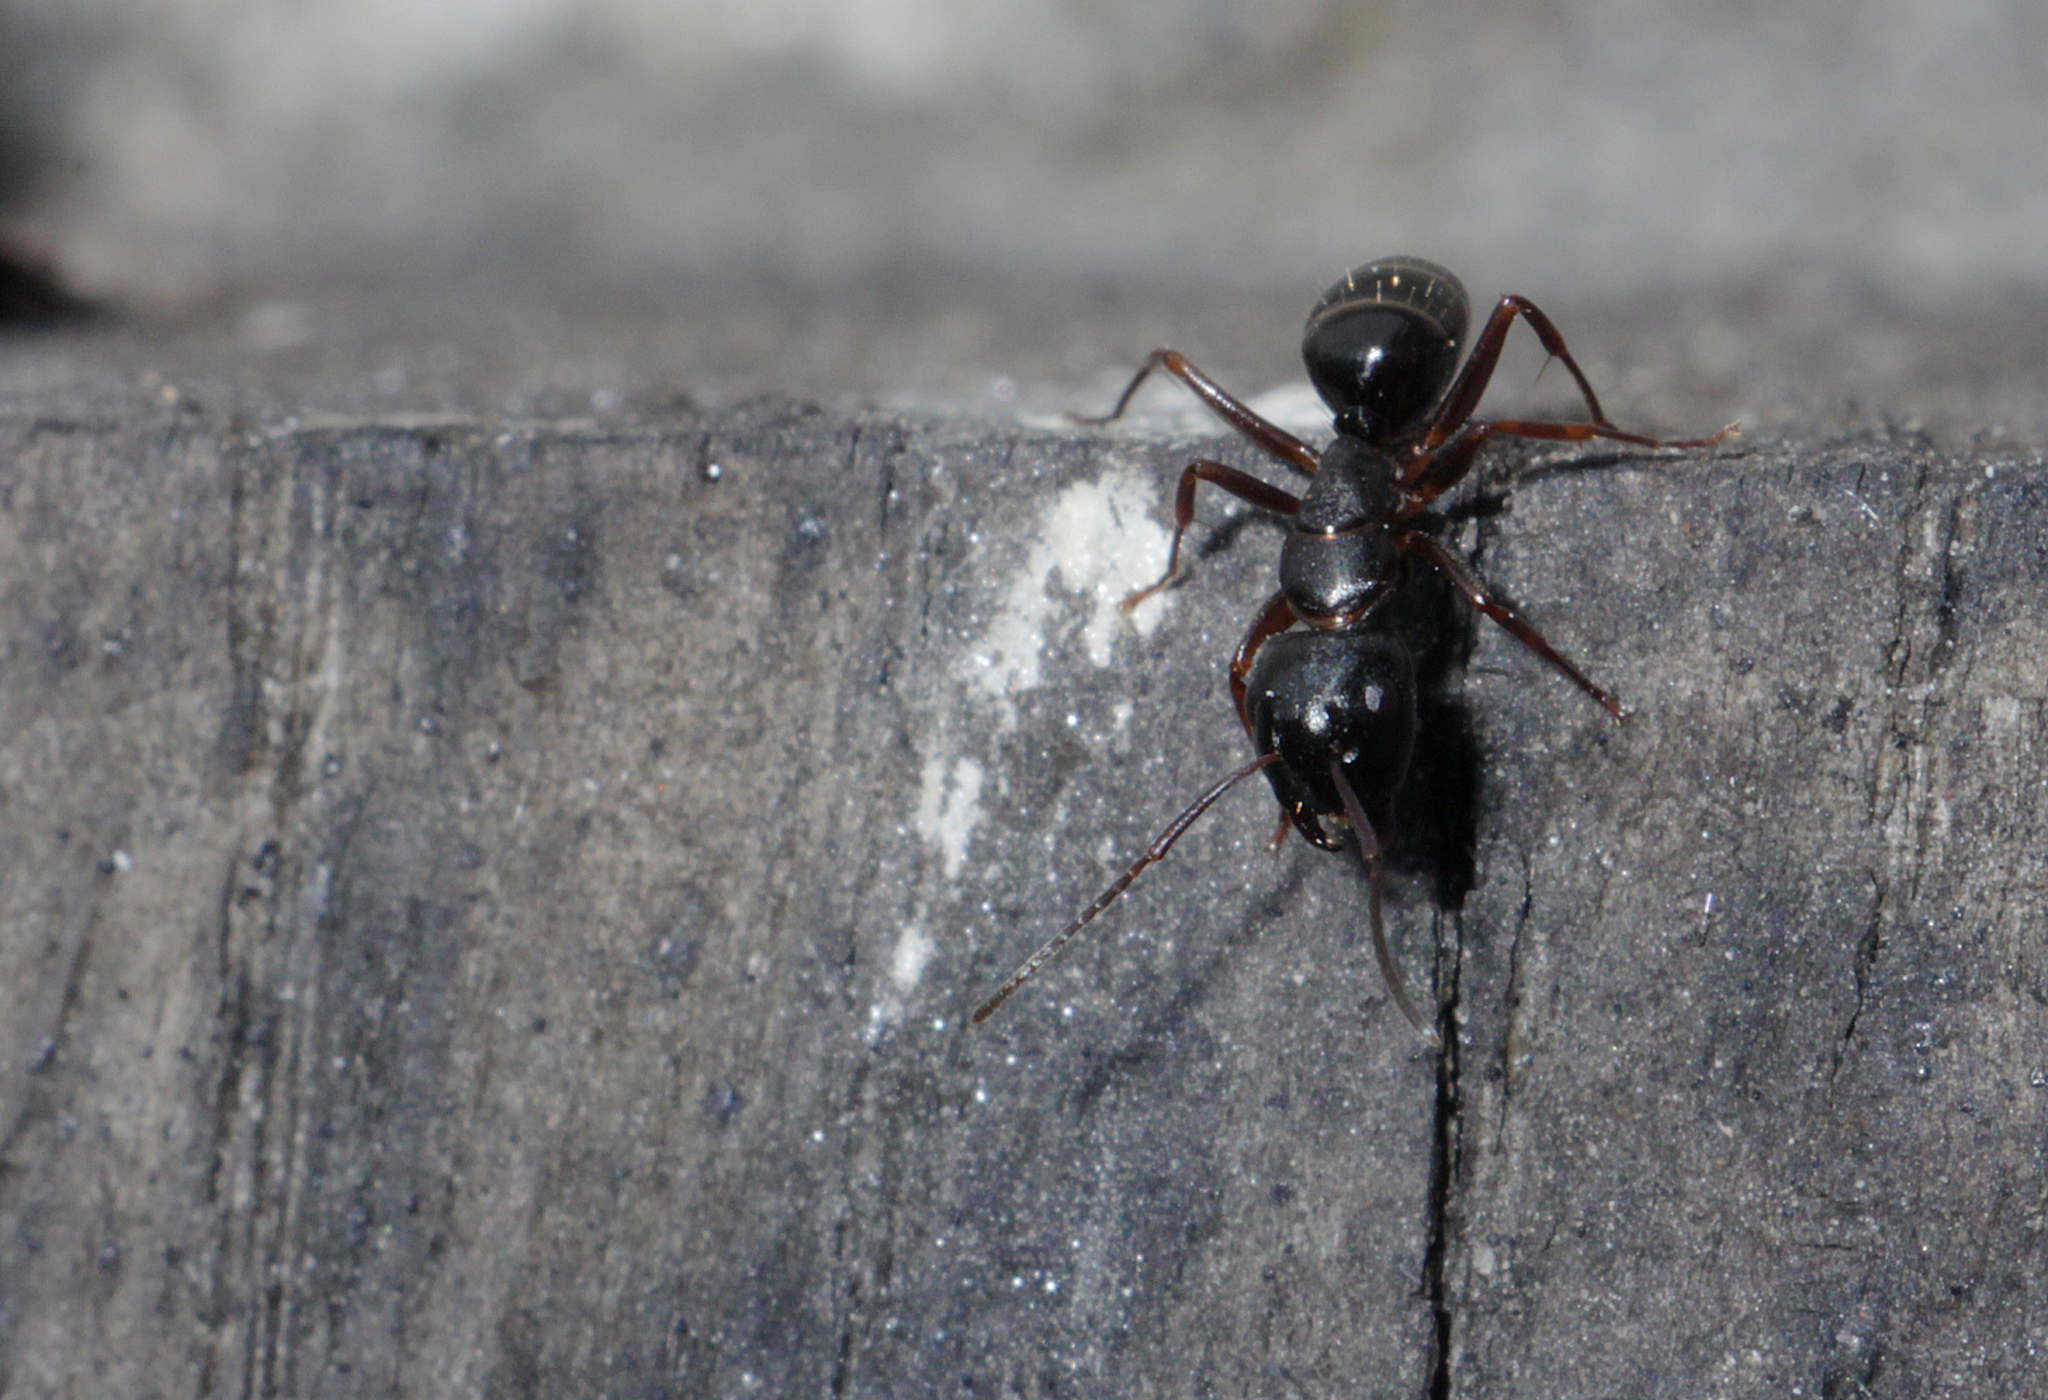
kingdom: Animalia
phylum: Arthropoda
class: Insecta
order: Hymenoptera
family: Formicidae
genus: Camponotus
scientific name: Camponotus fallax
